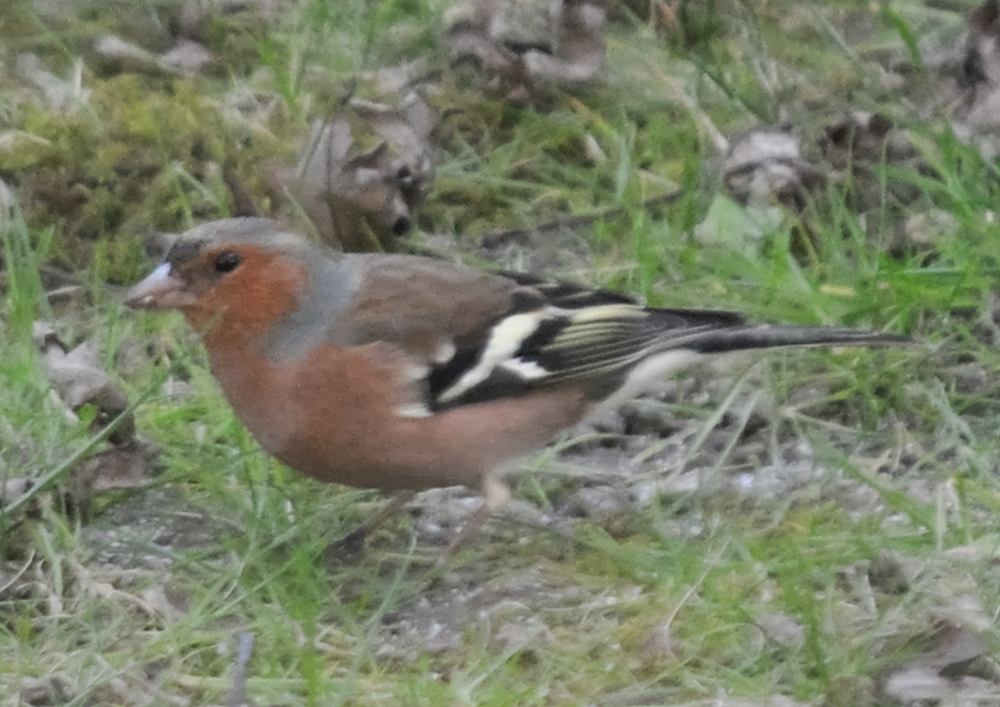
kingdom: Animalia
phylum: Chordata
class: Aves
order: Passeriformes
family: Fringillidae
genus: Fringilla
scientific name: Fringilla coelebs
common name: Common chaffinch
